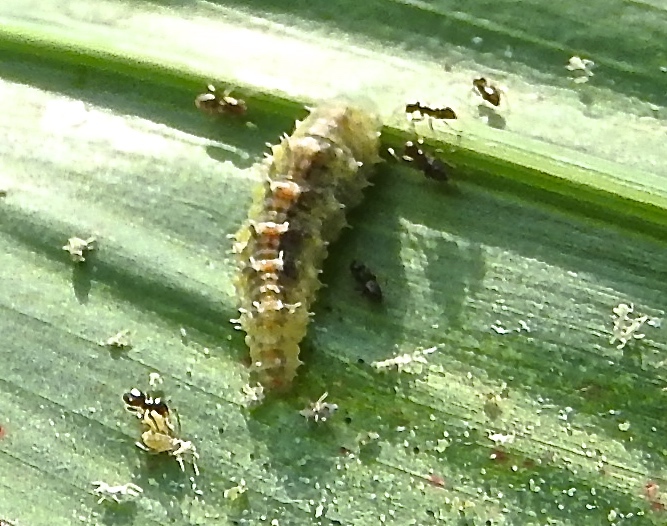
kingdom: Animalia
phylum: Arthropoda
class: Insecta
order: Diptera
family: Syrphidae
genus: Dioprosopa
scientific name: Dioprosopa clavatus
